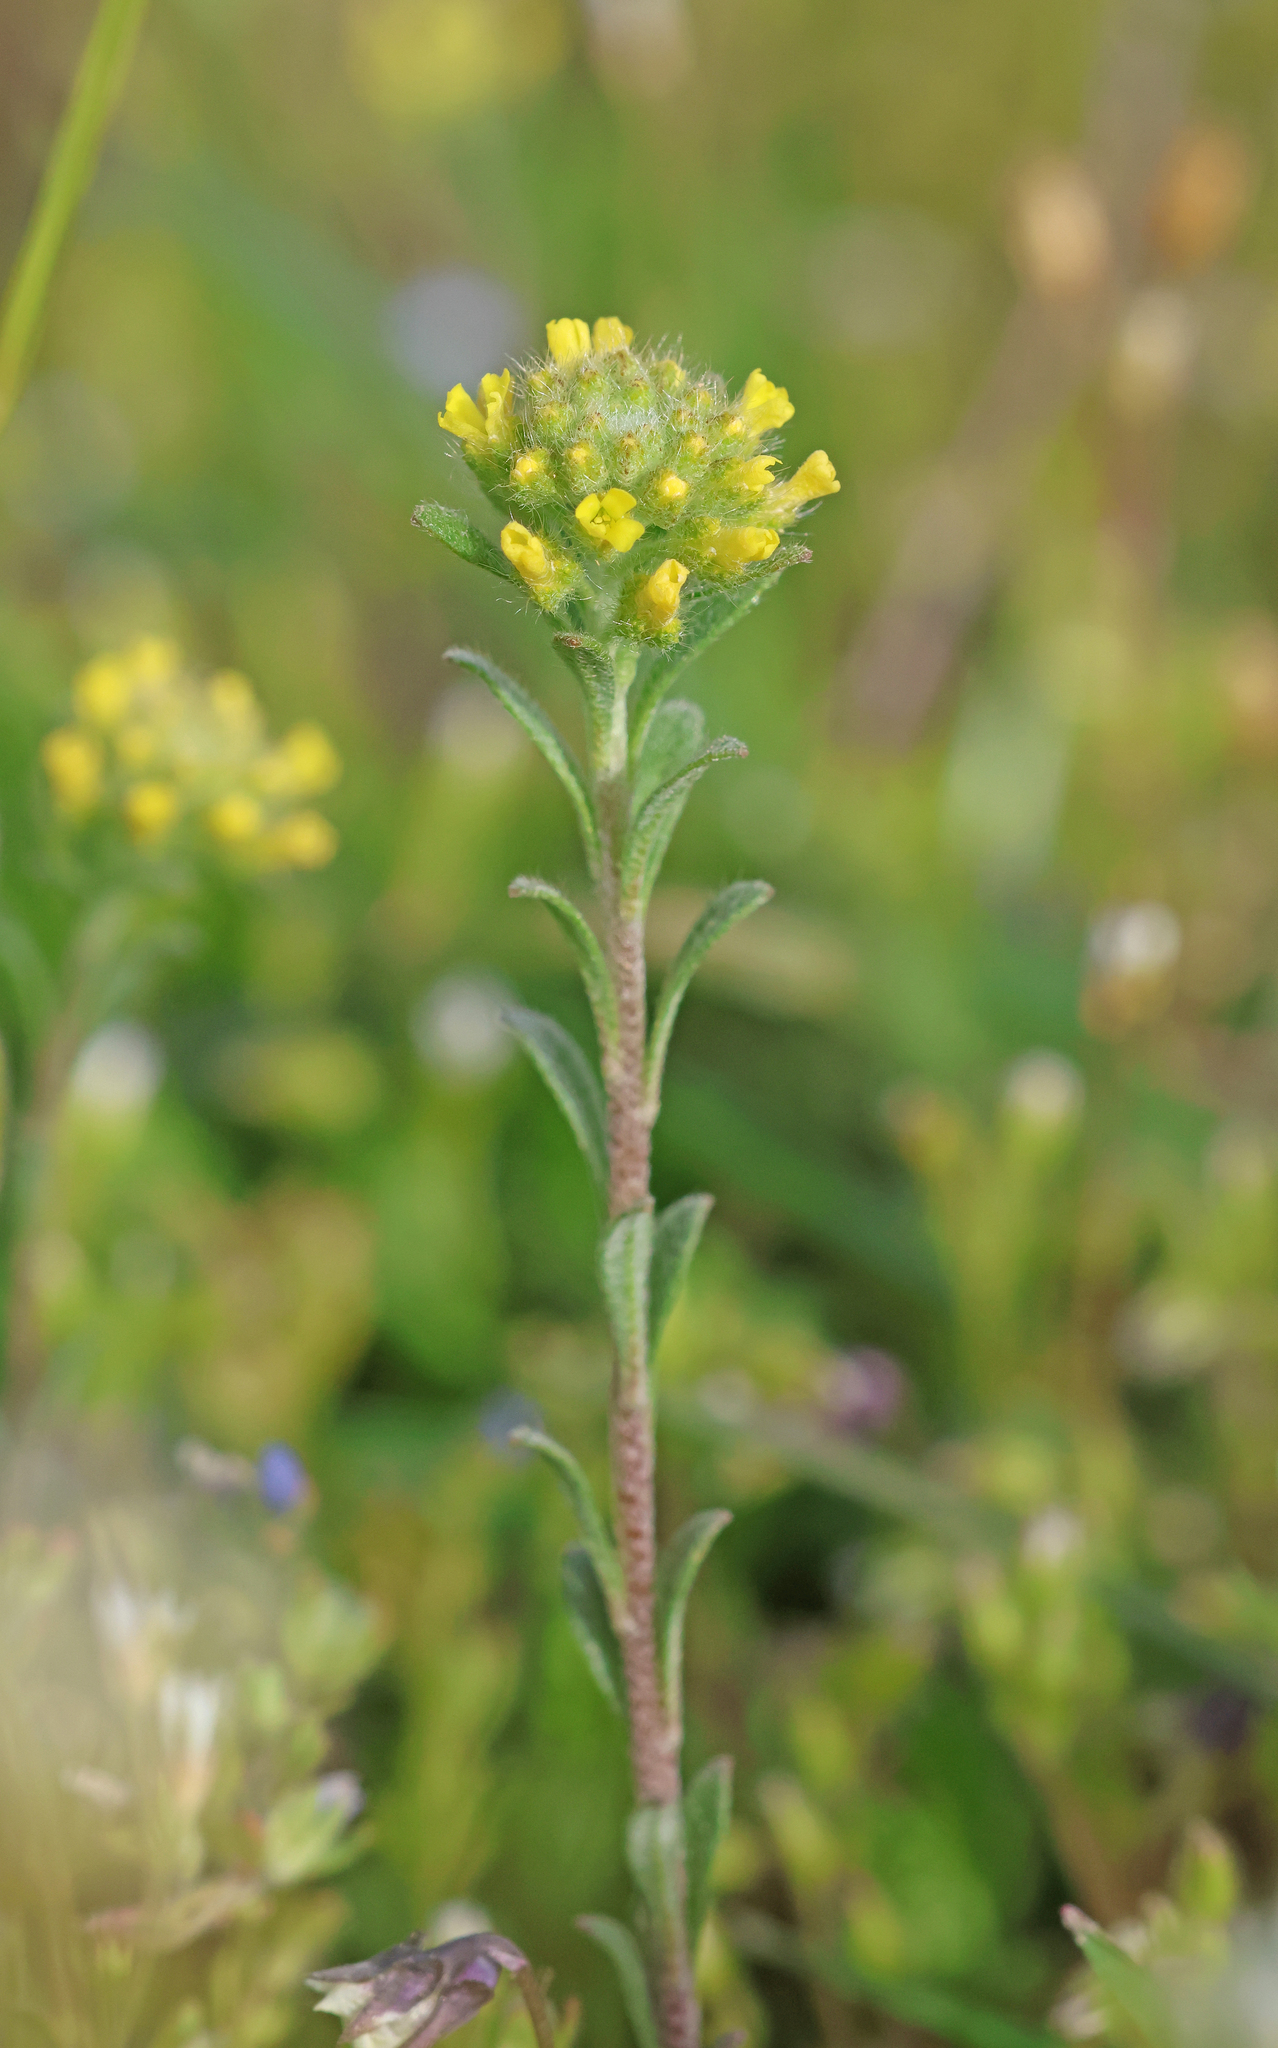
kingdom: Plantae
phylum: Tracheophyta
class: Magnoliopsida
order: Brassicales
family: Brassicaceae
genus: Alyssum
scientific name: Alyssum alyssoides
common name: Small alison
